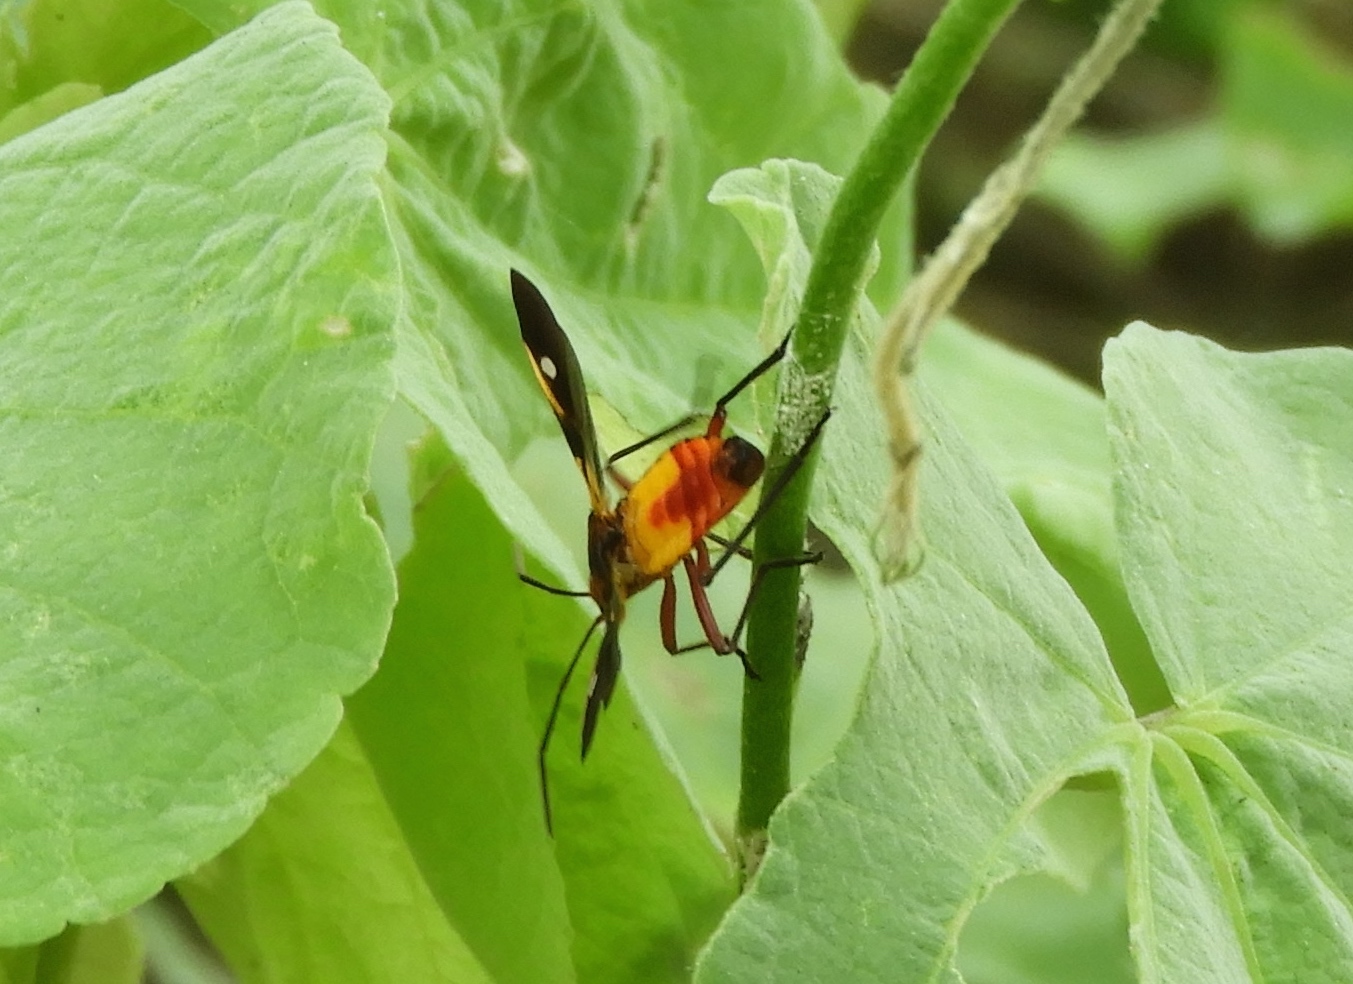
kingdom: Animalia
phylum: Arthropoda
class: Insecta
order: Hemiptera
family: Lygaeidae
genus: Oncopeltus
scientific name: Oncopeltus guttaloides
